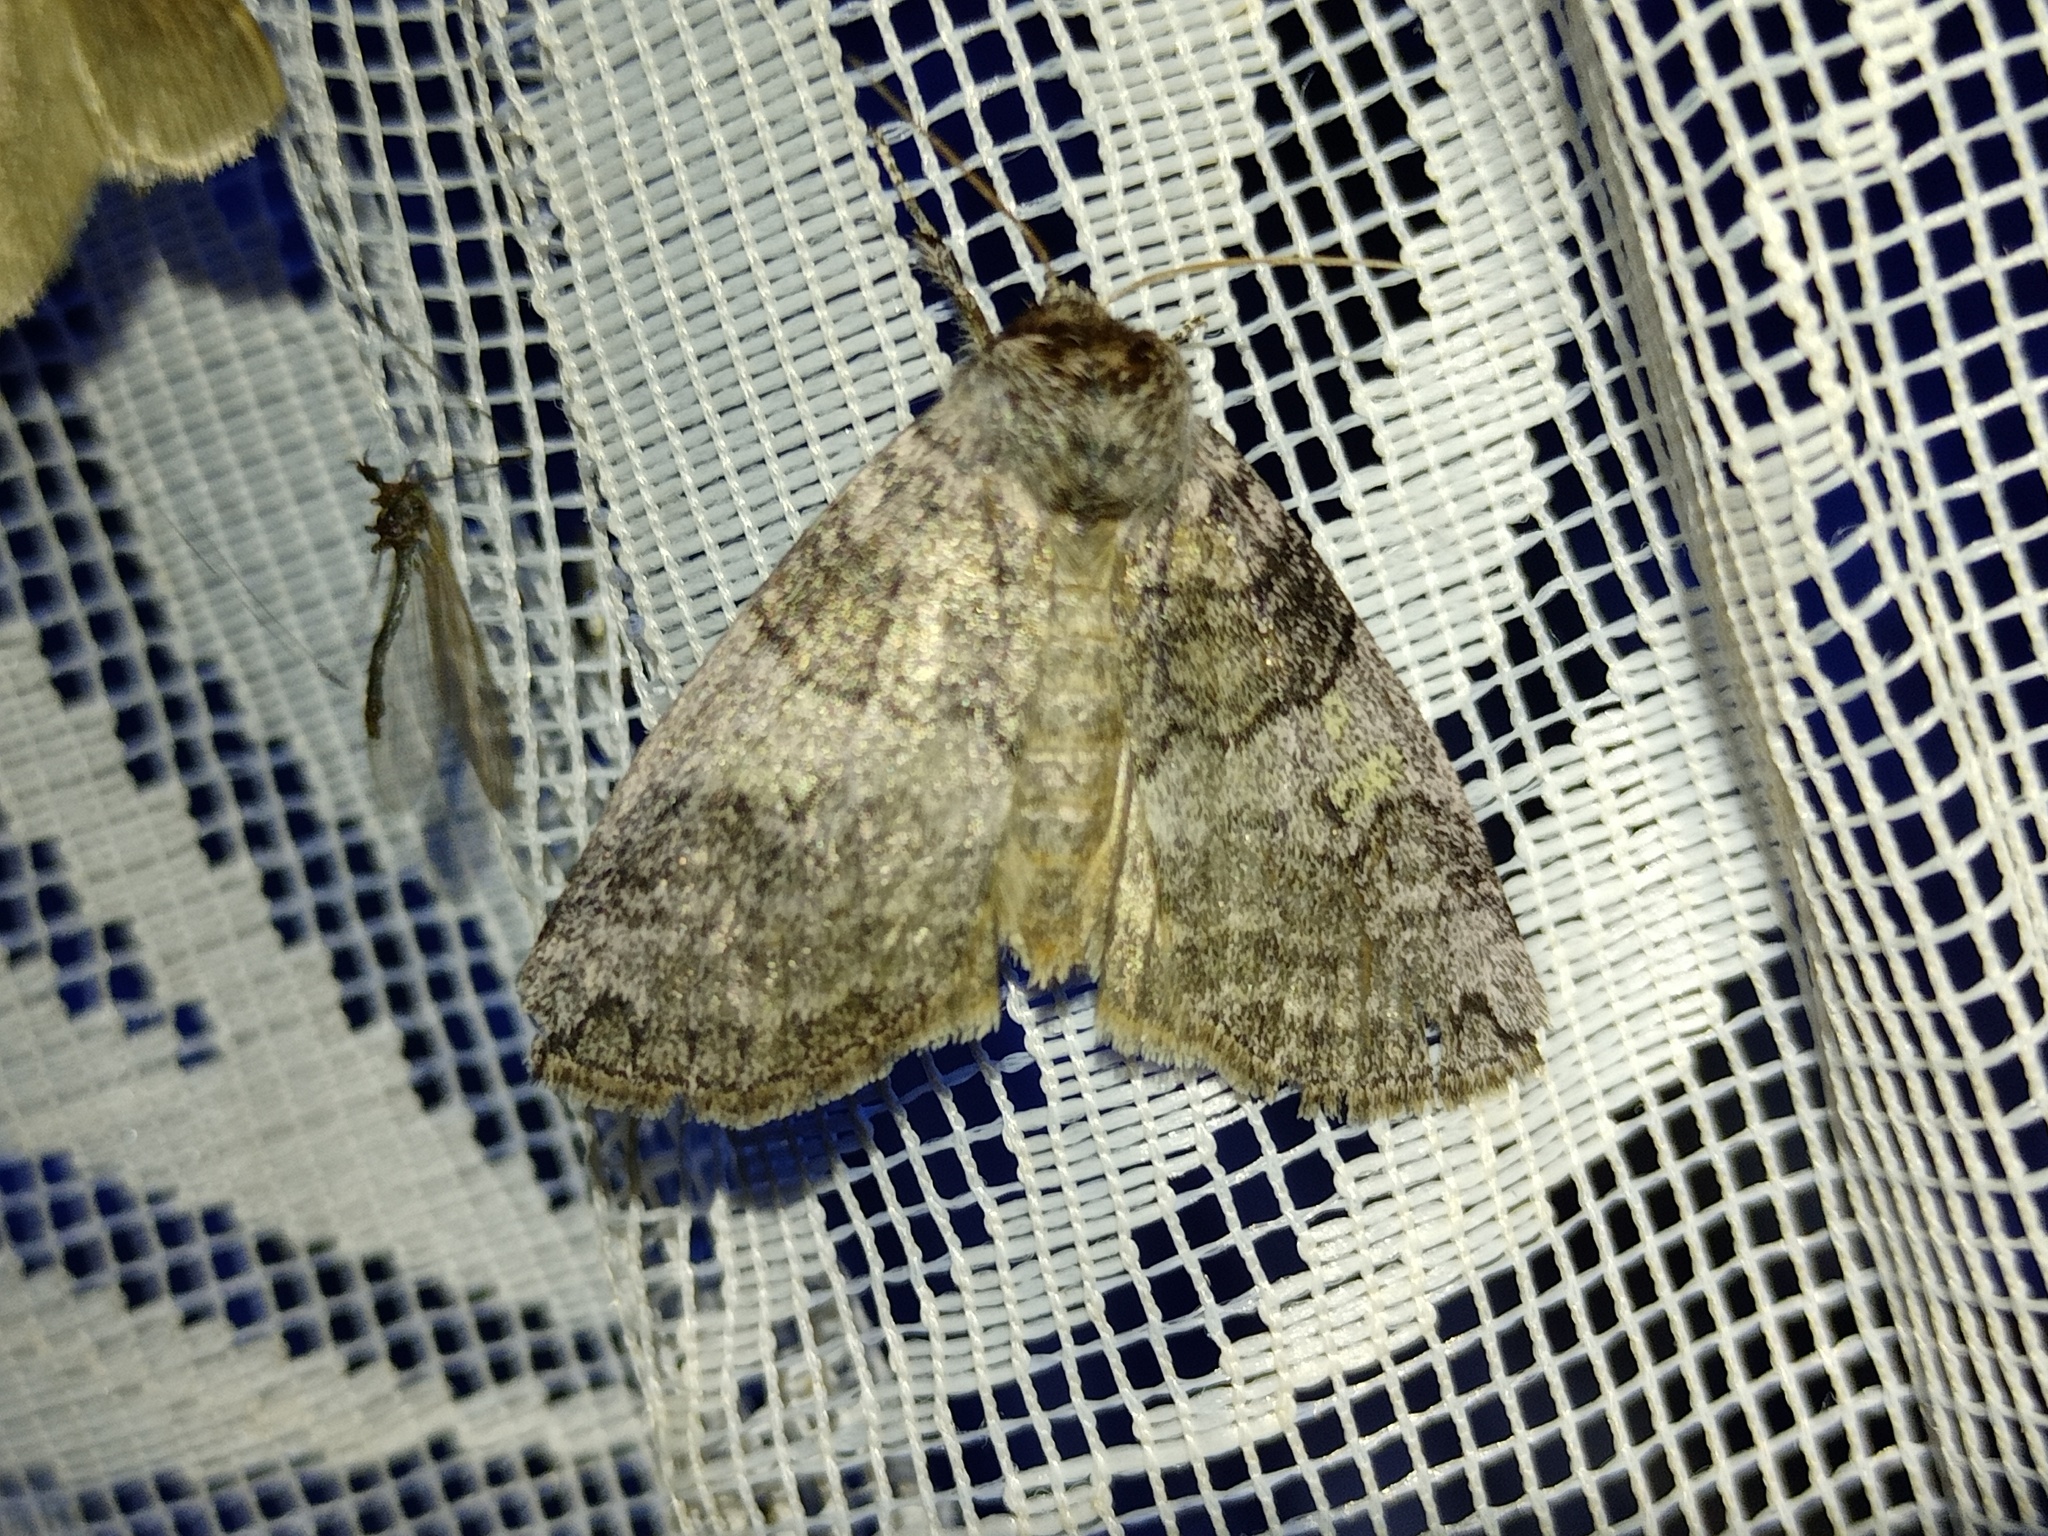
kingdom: Animalia
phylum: Arthropoda
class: Insecta
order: Lepidoptera
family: Drepanidae
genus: Tethea
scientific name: Tethea or
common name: Poplar lutestring
